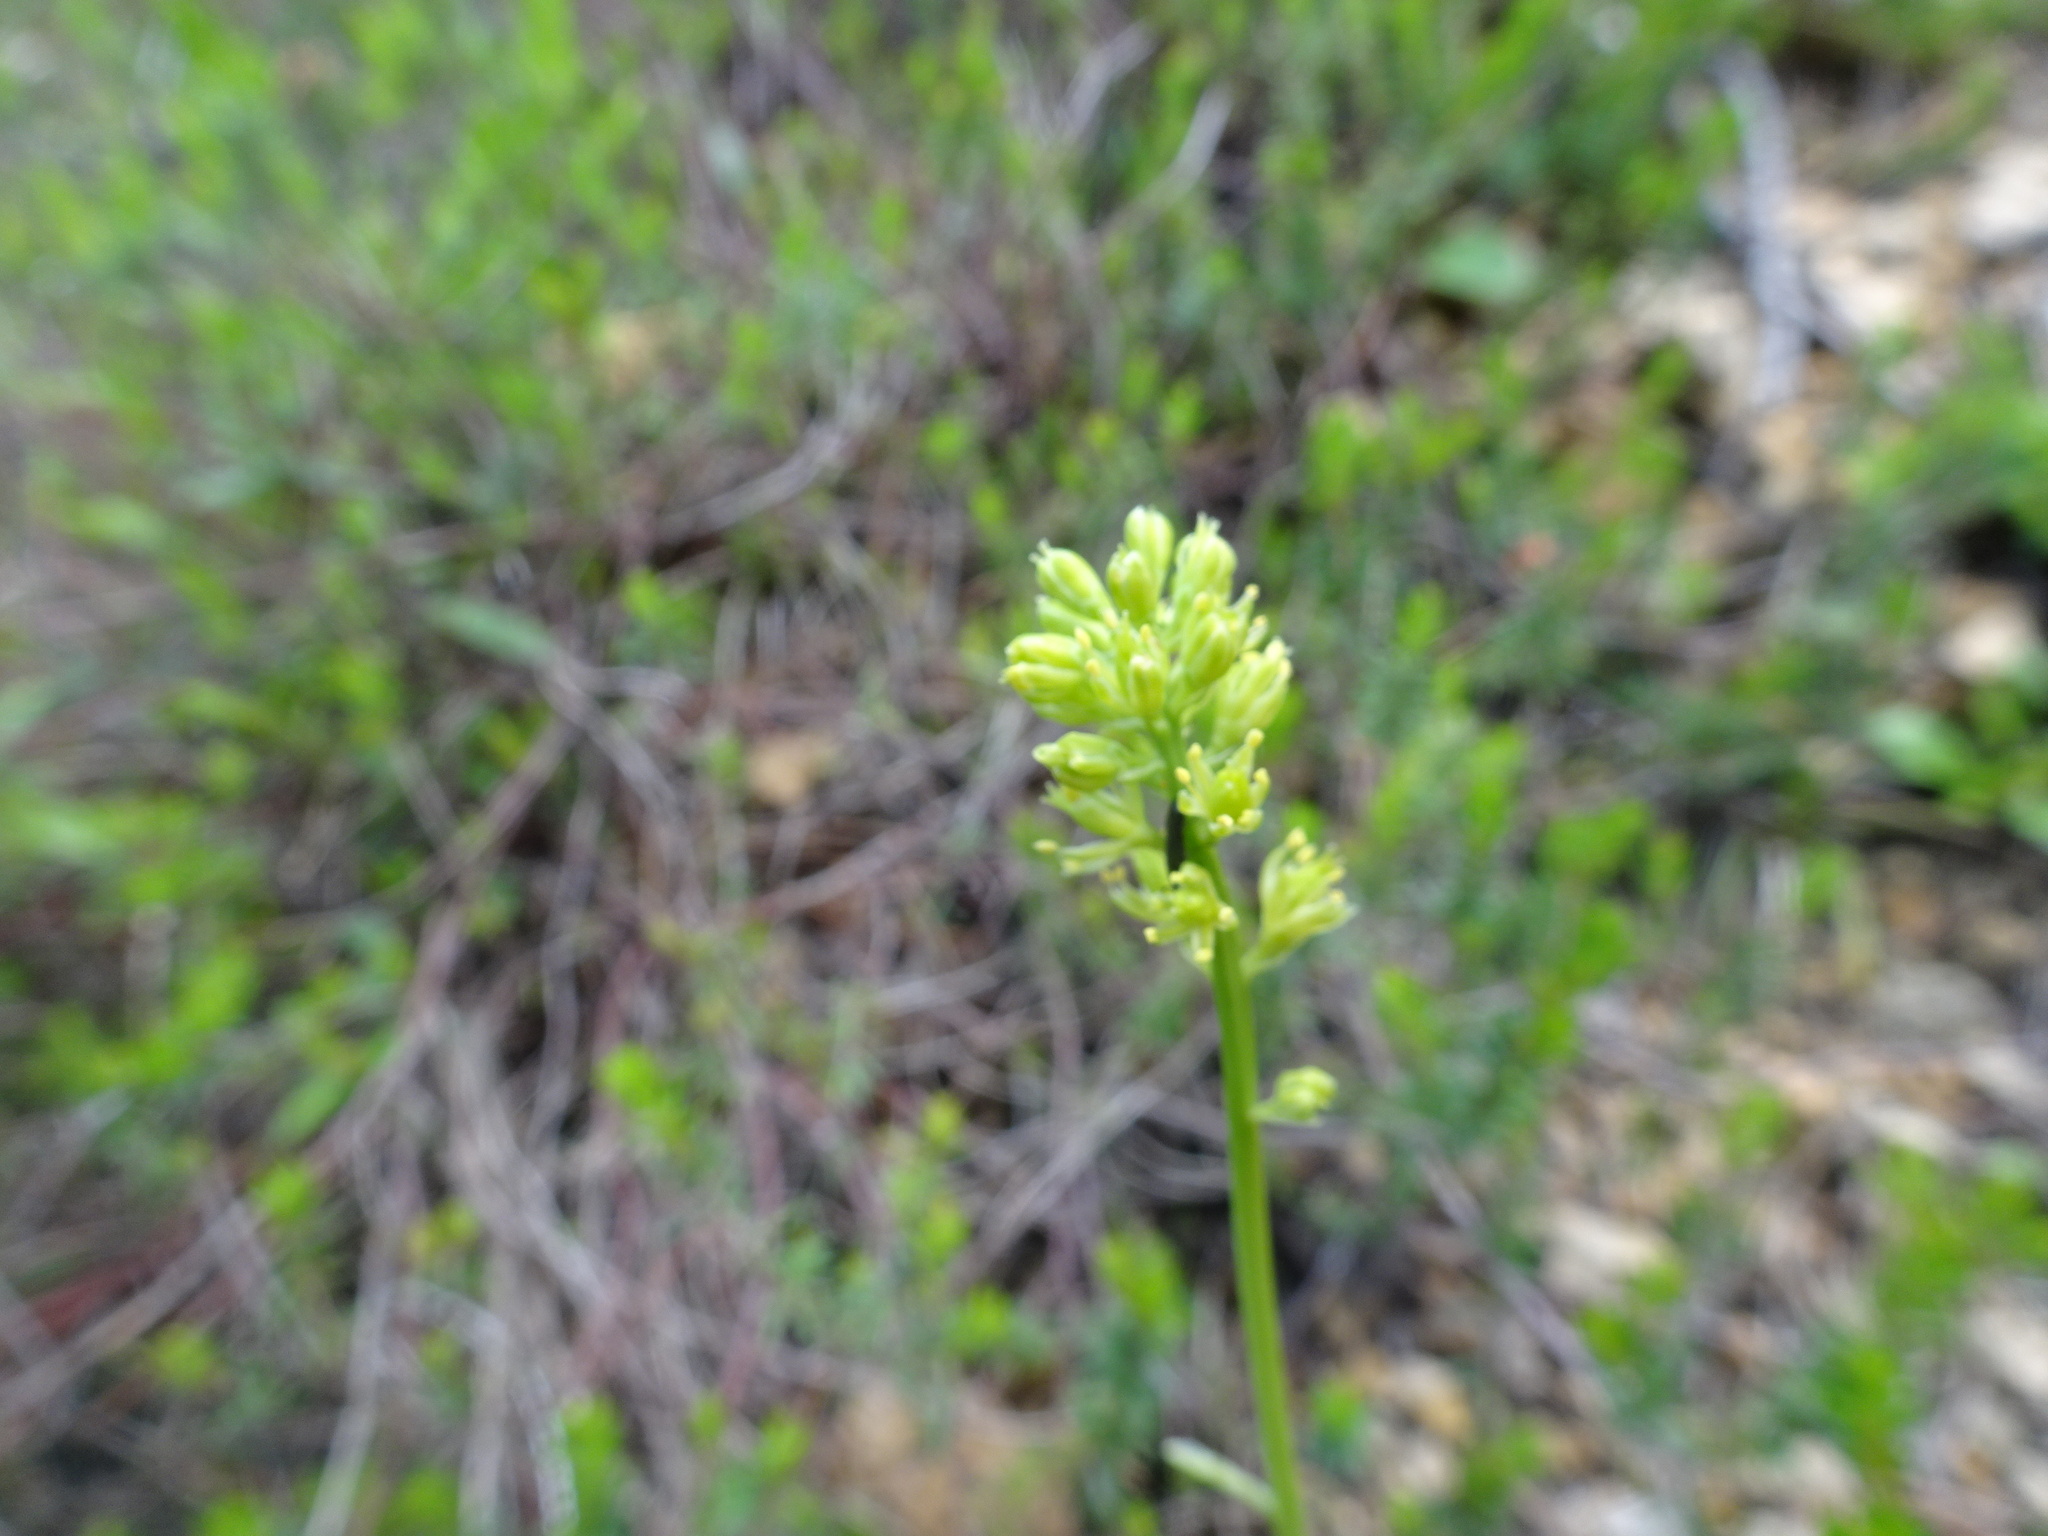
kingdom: Plantae
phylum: Tracheophyta
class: Liliopsida
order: Alismatales
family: Tofieldiaceae
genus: Tofieldia
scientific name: Tofieldia calyculata
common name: German-asphodel
